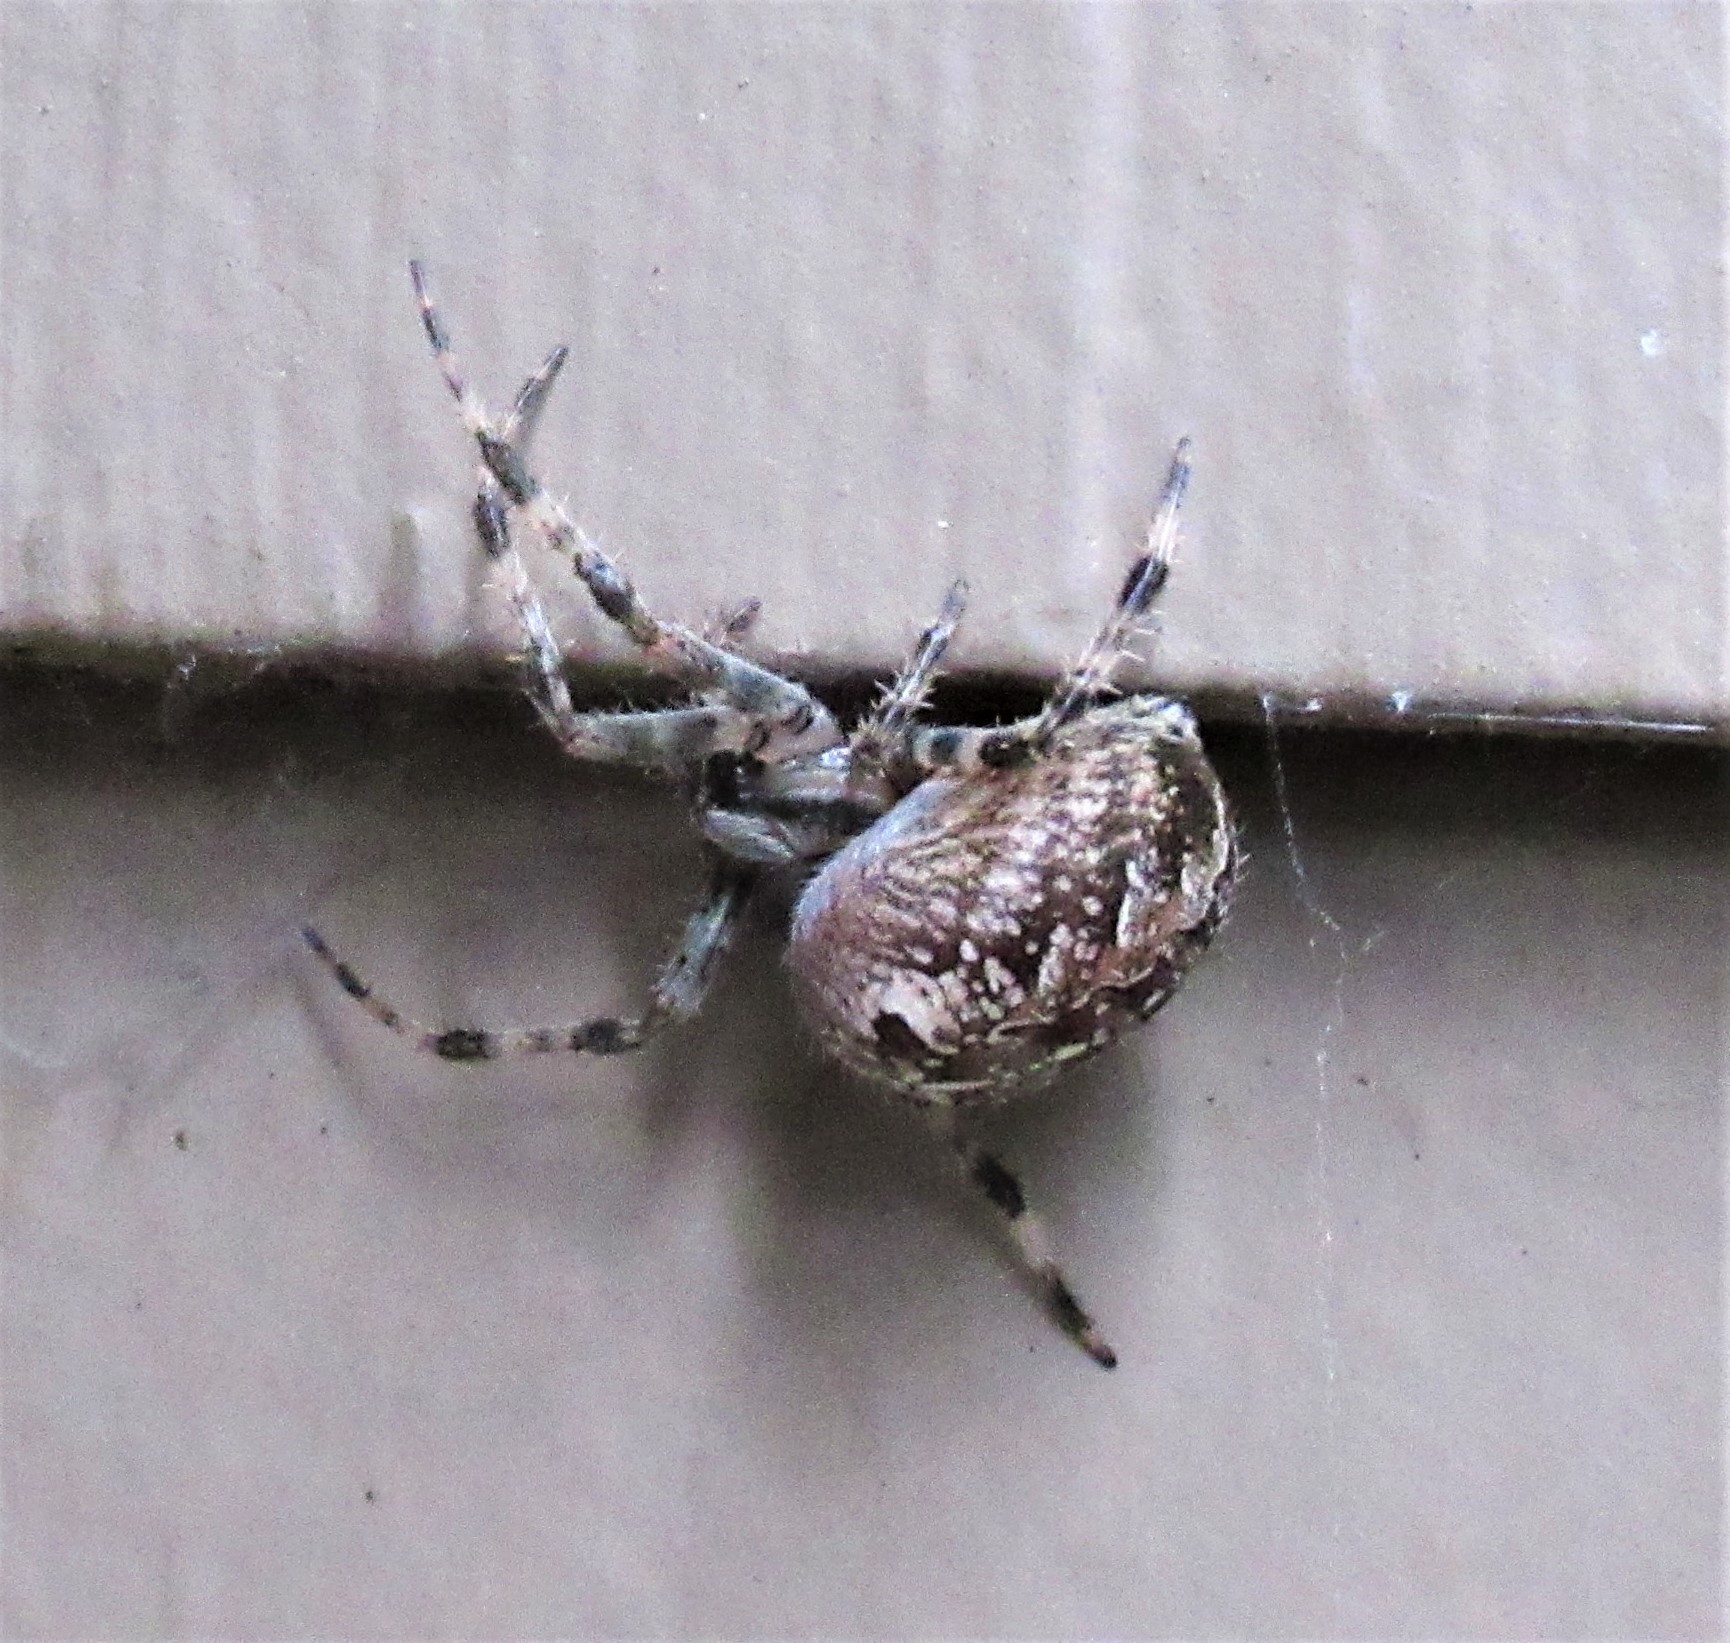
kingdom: Animalia
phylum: Arthropoda
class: Arachnida
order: Araneae
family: Araneidae
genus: Araneus
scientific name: Araneus diadematus
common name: Cross orbweaver
